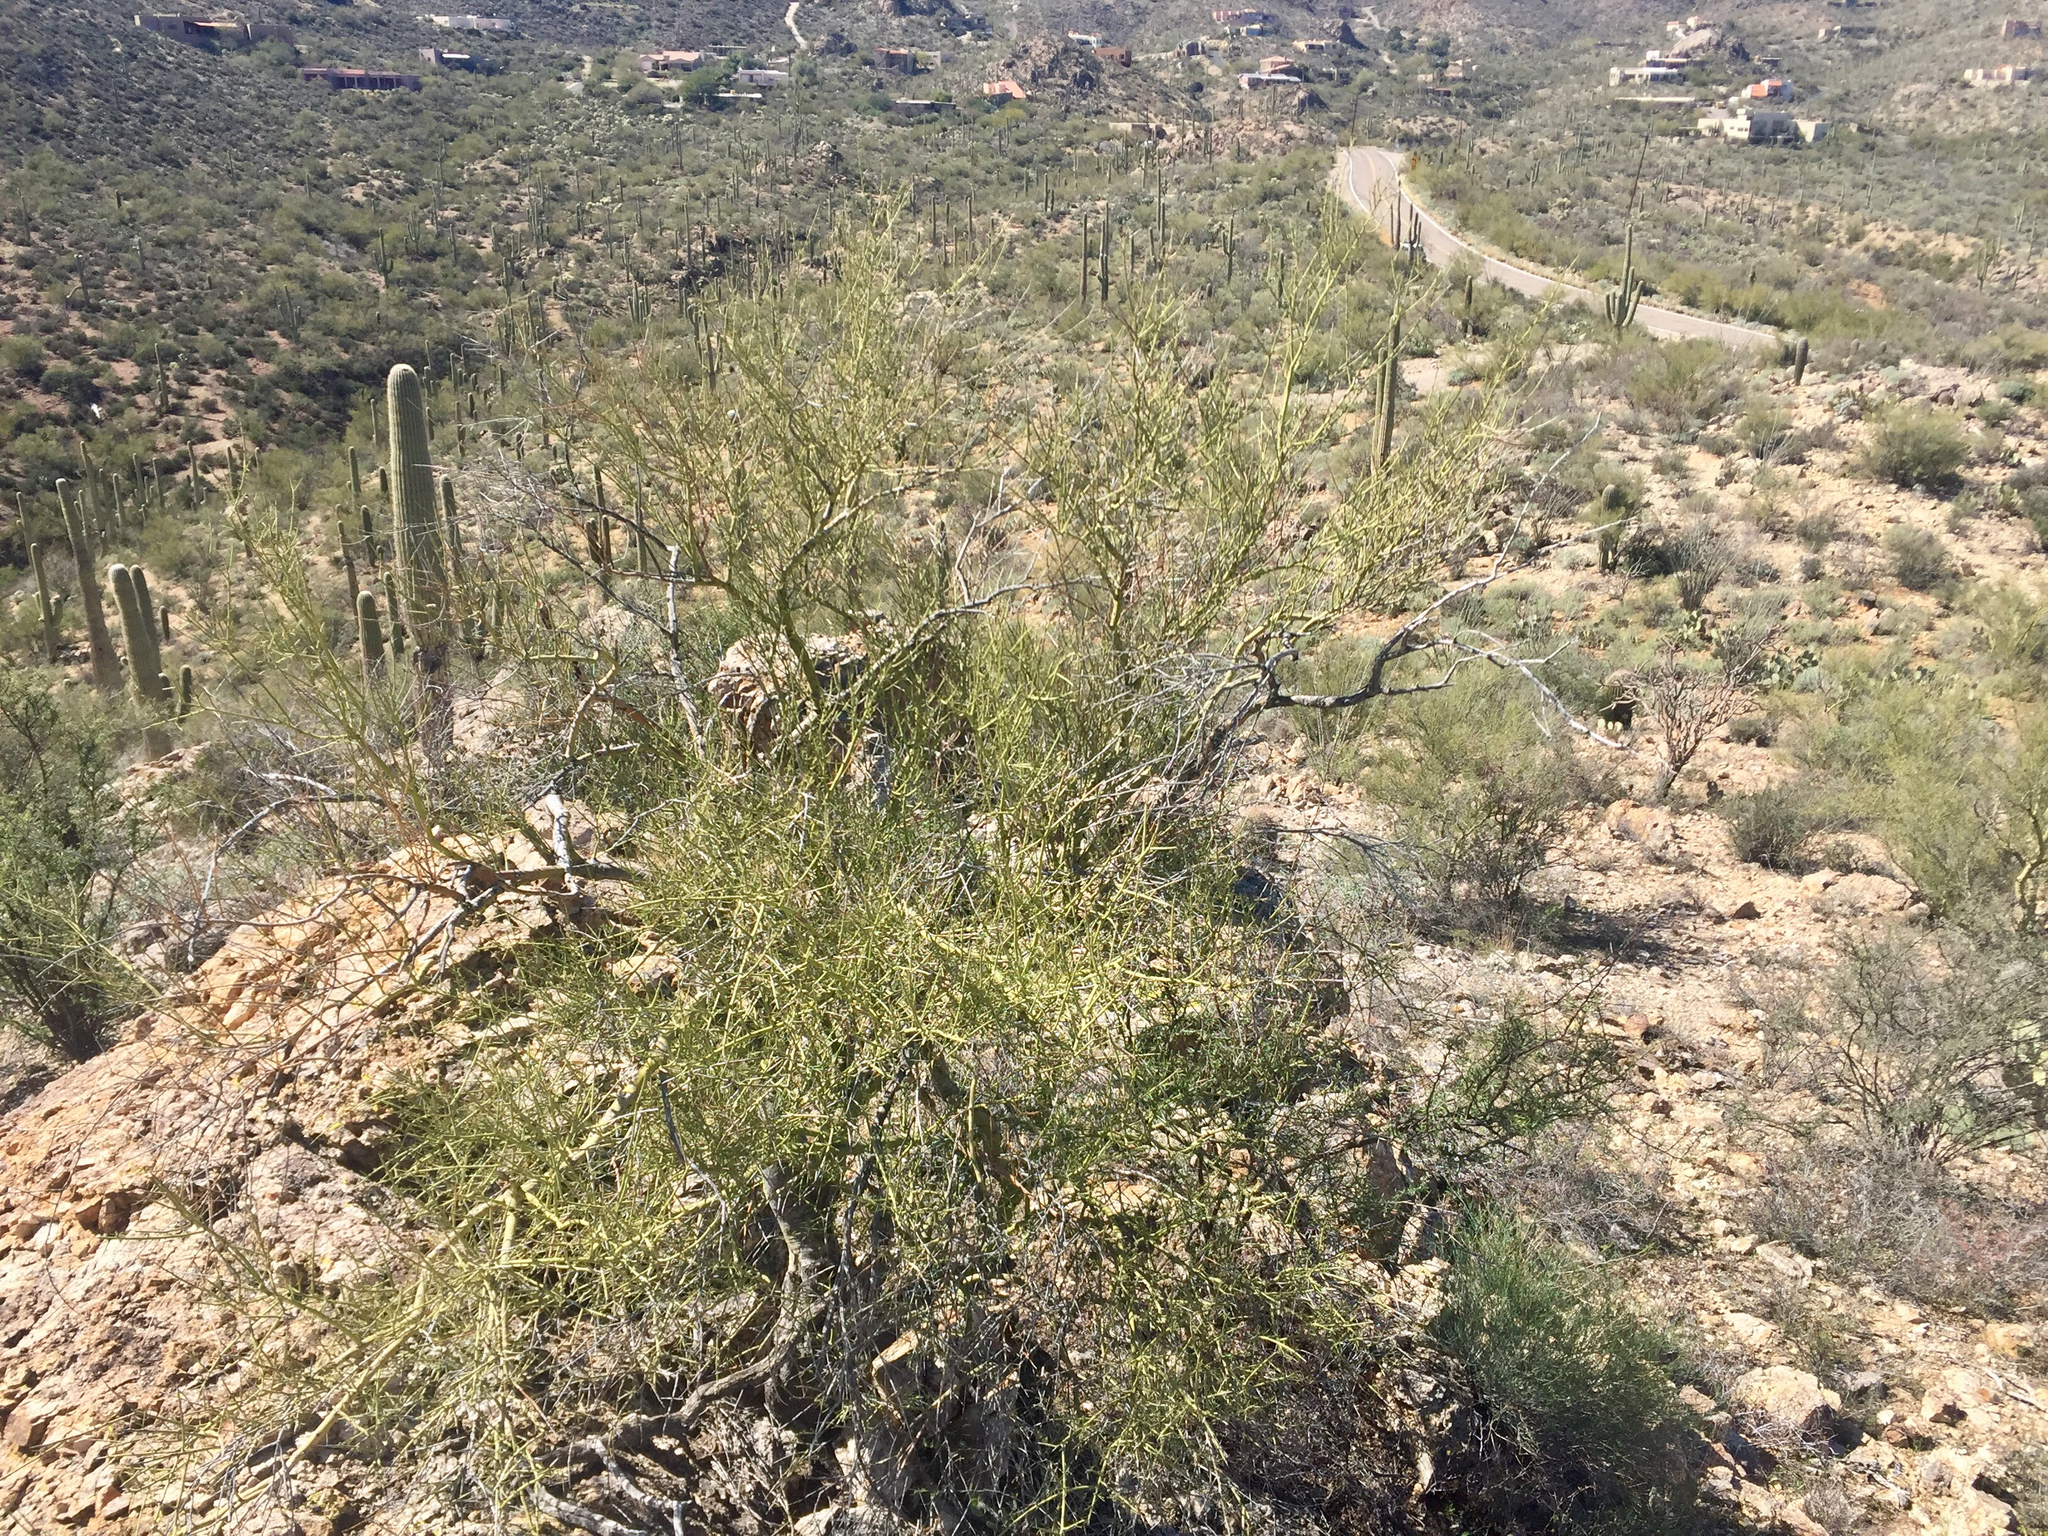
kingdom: Plantae
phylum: Tracheophyta
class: Magnoliopsida
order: Fabales
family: Fabaceae
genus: Parkinsonia
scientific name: Parkinsonia microphylla
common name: Yellow paloverde
